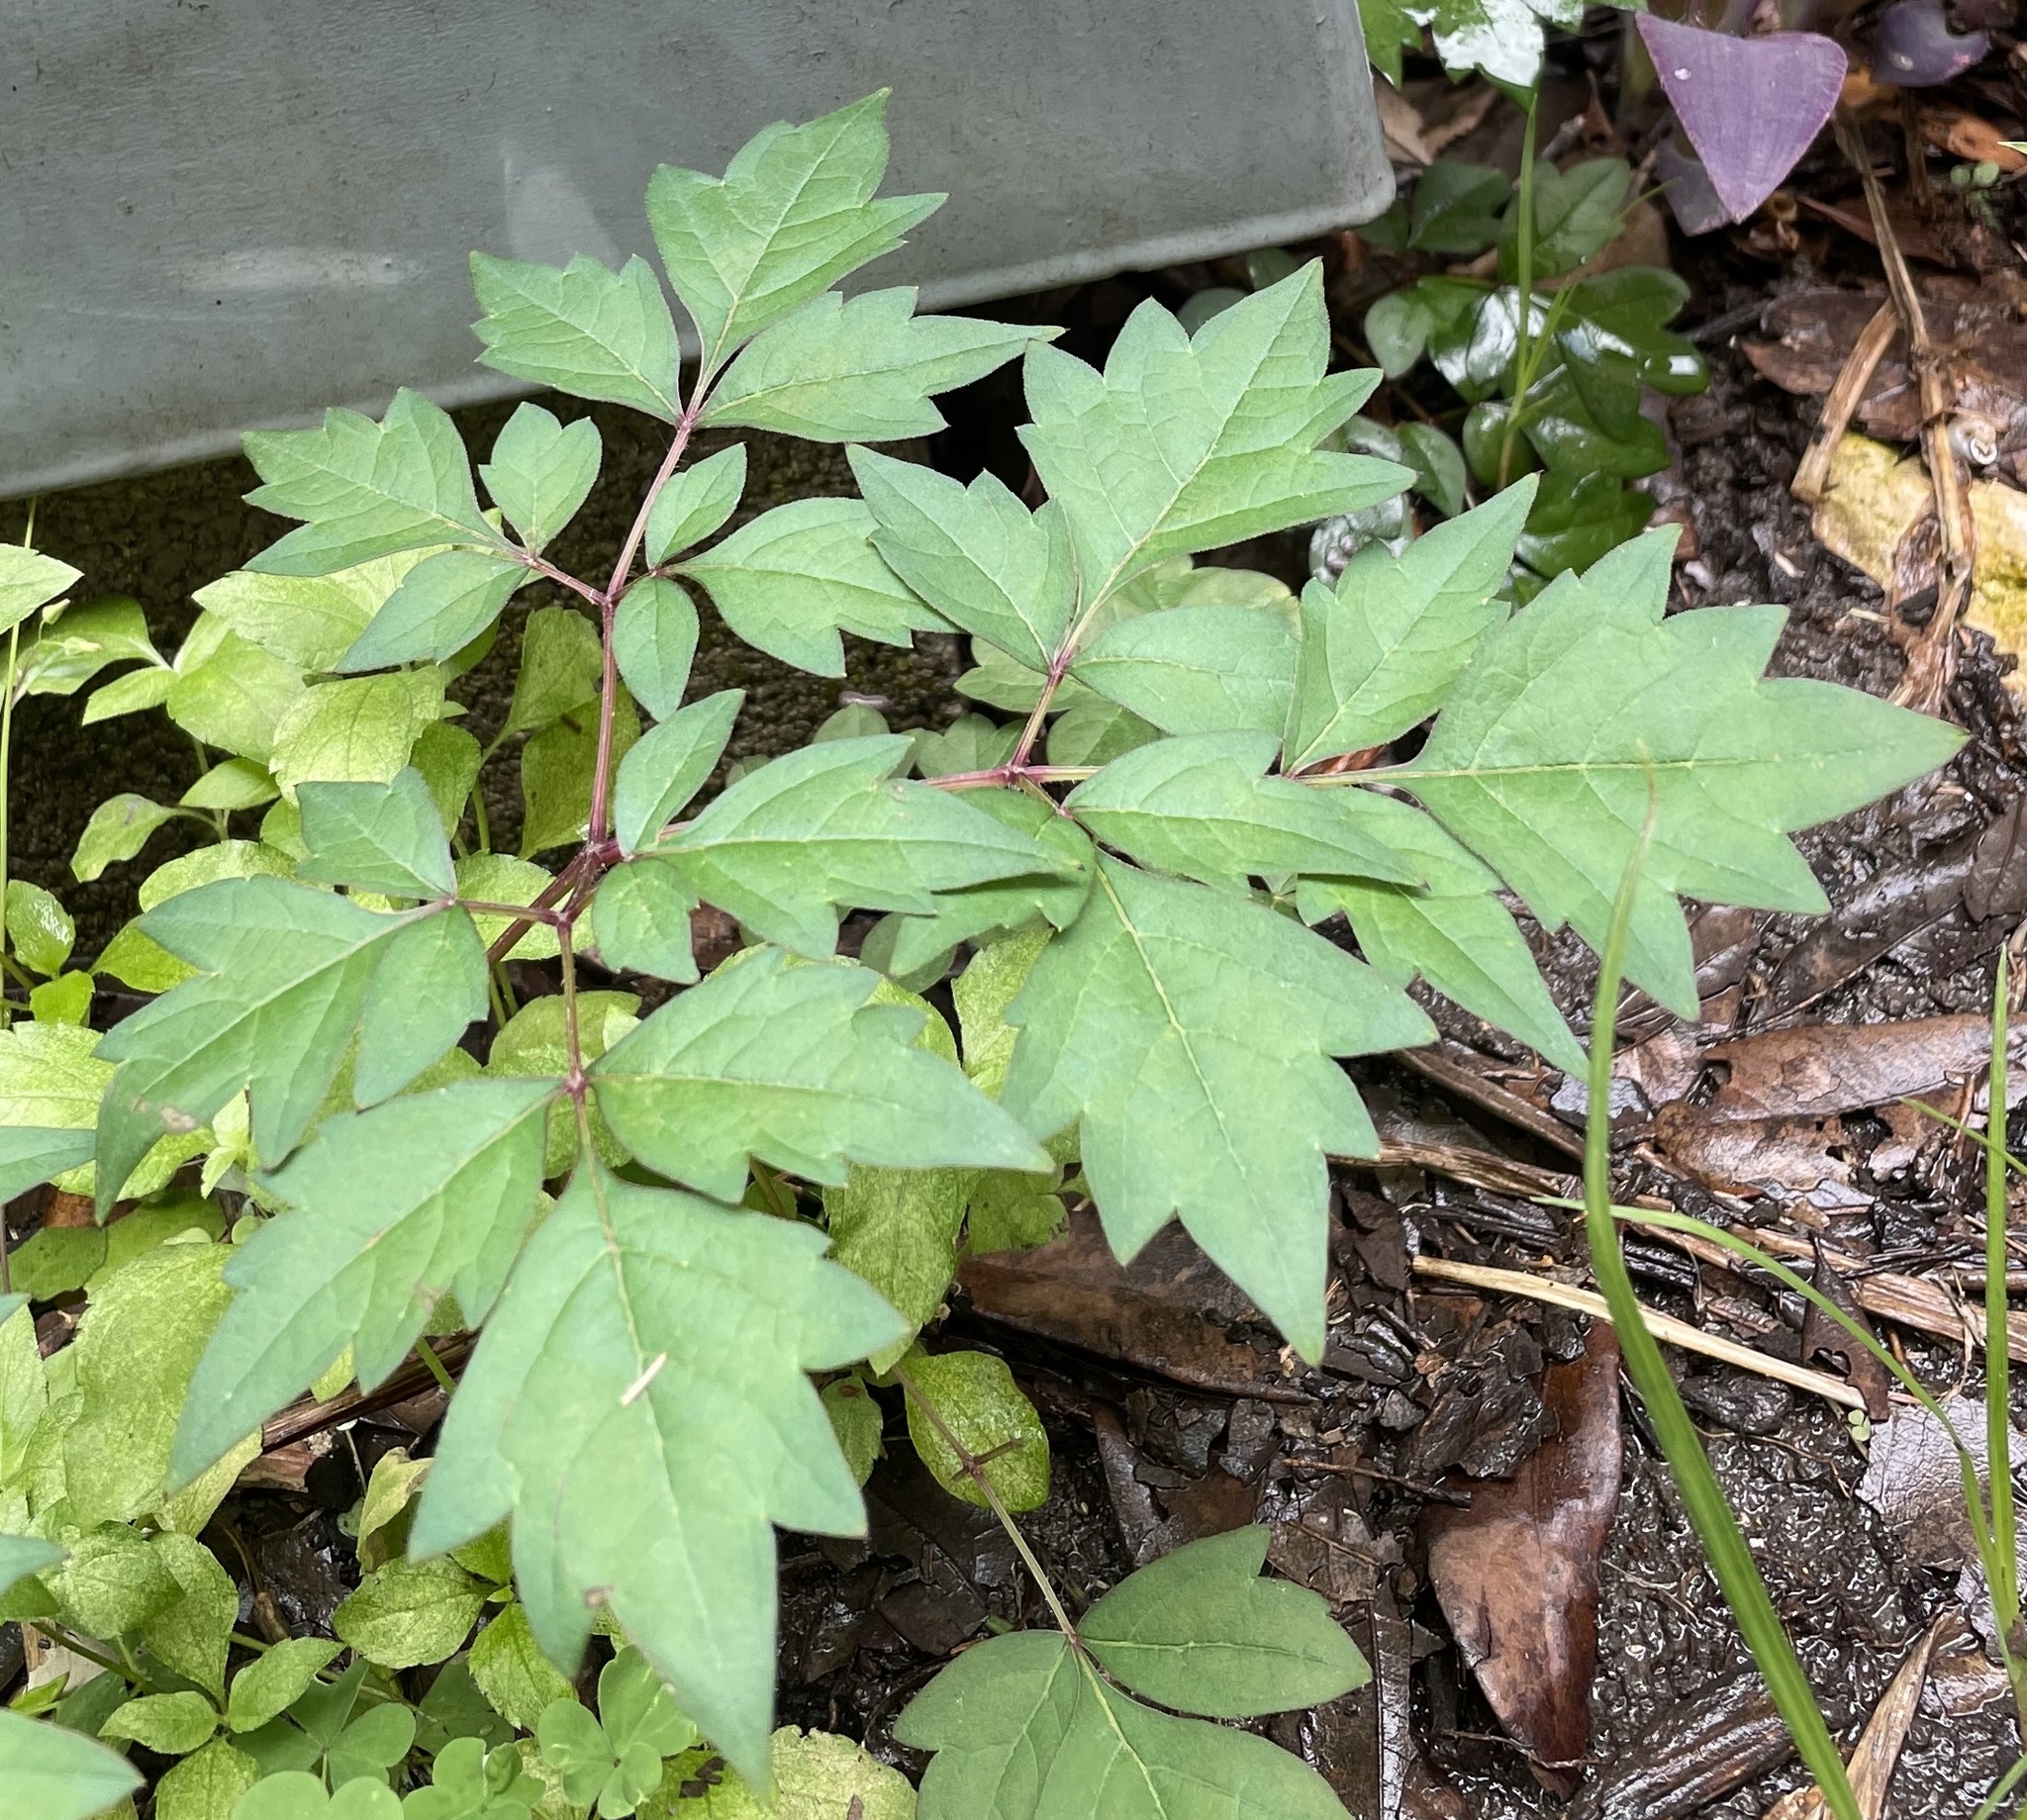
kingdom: Plantae
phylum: Tracheophyta
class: Magnoliopsida
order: Vitales
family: Vitaceae
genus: Nekemias
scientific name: Nekemias arborea
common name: Peppervine
